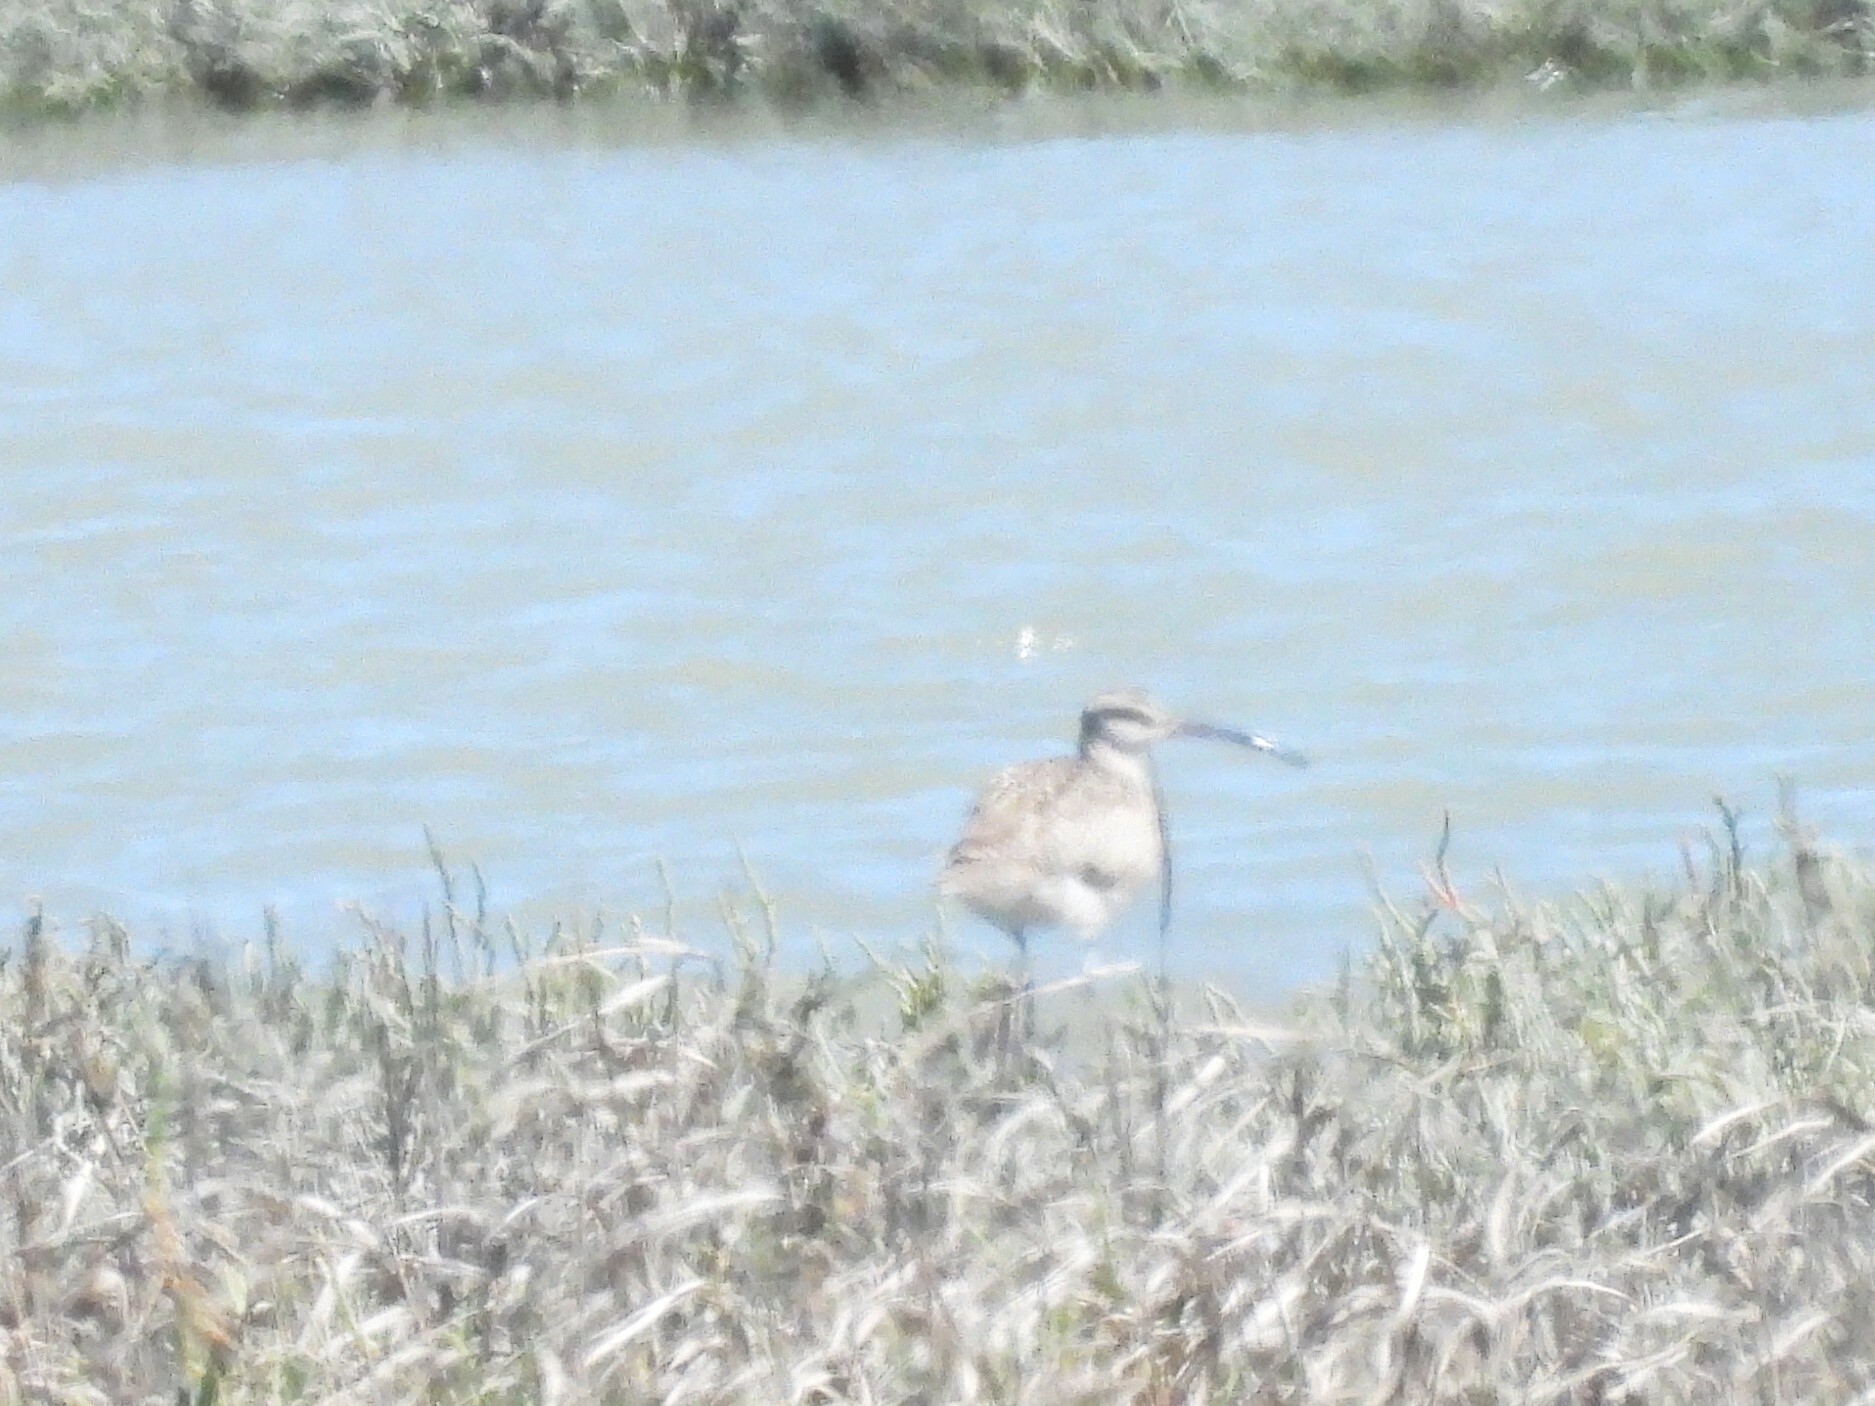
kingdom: Animalia
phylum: Chordata
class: Aves
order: Charadriiformes
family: Scolopacidae
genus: Numenius
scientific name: Numenius phaeopus
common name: Whimbrel
